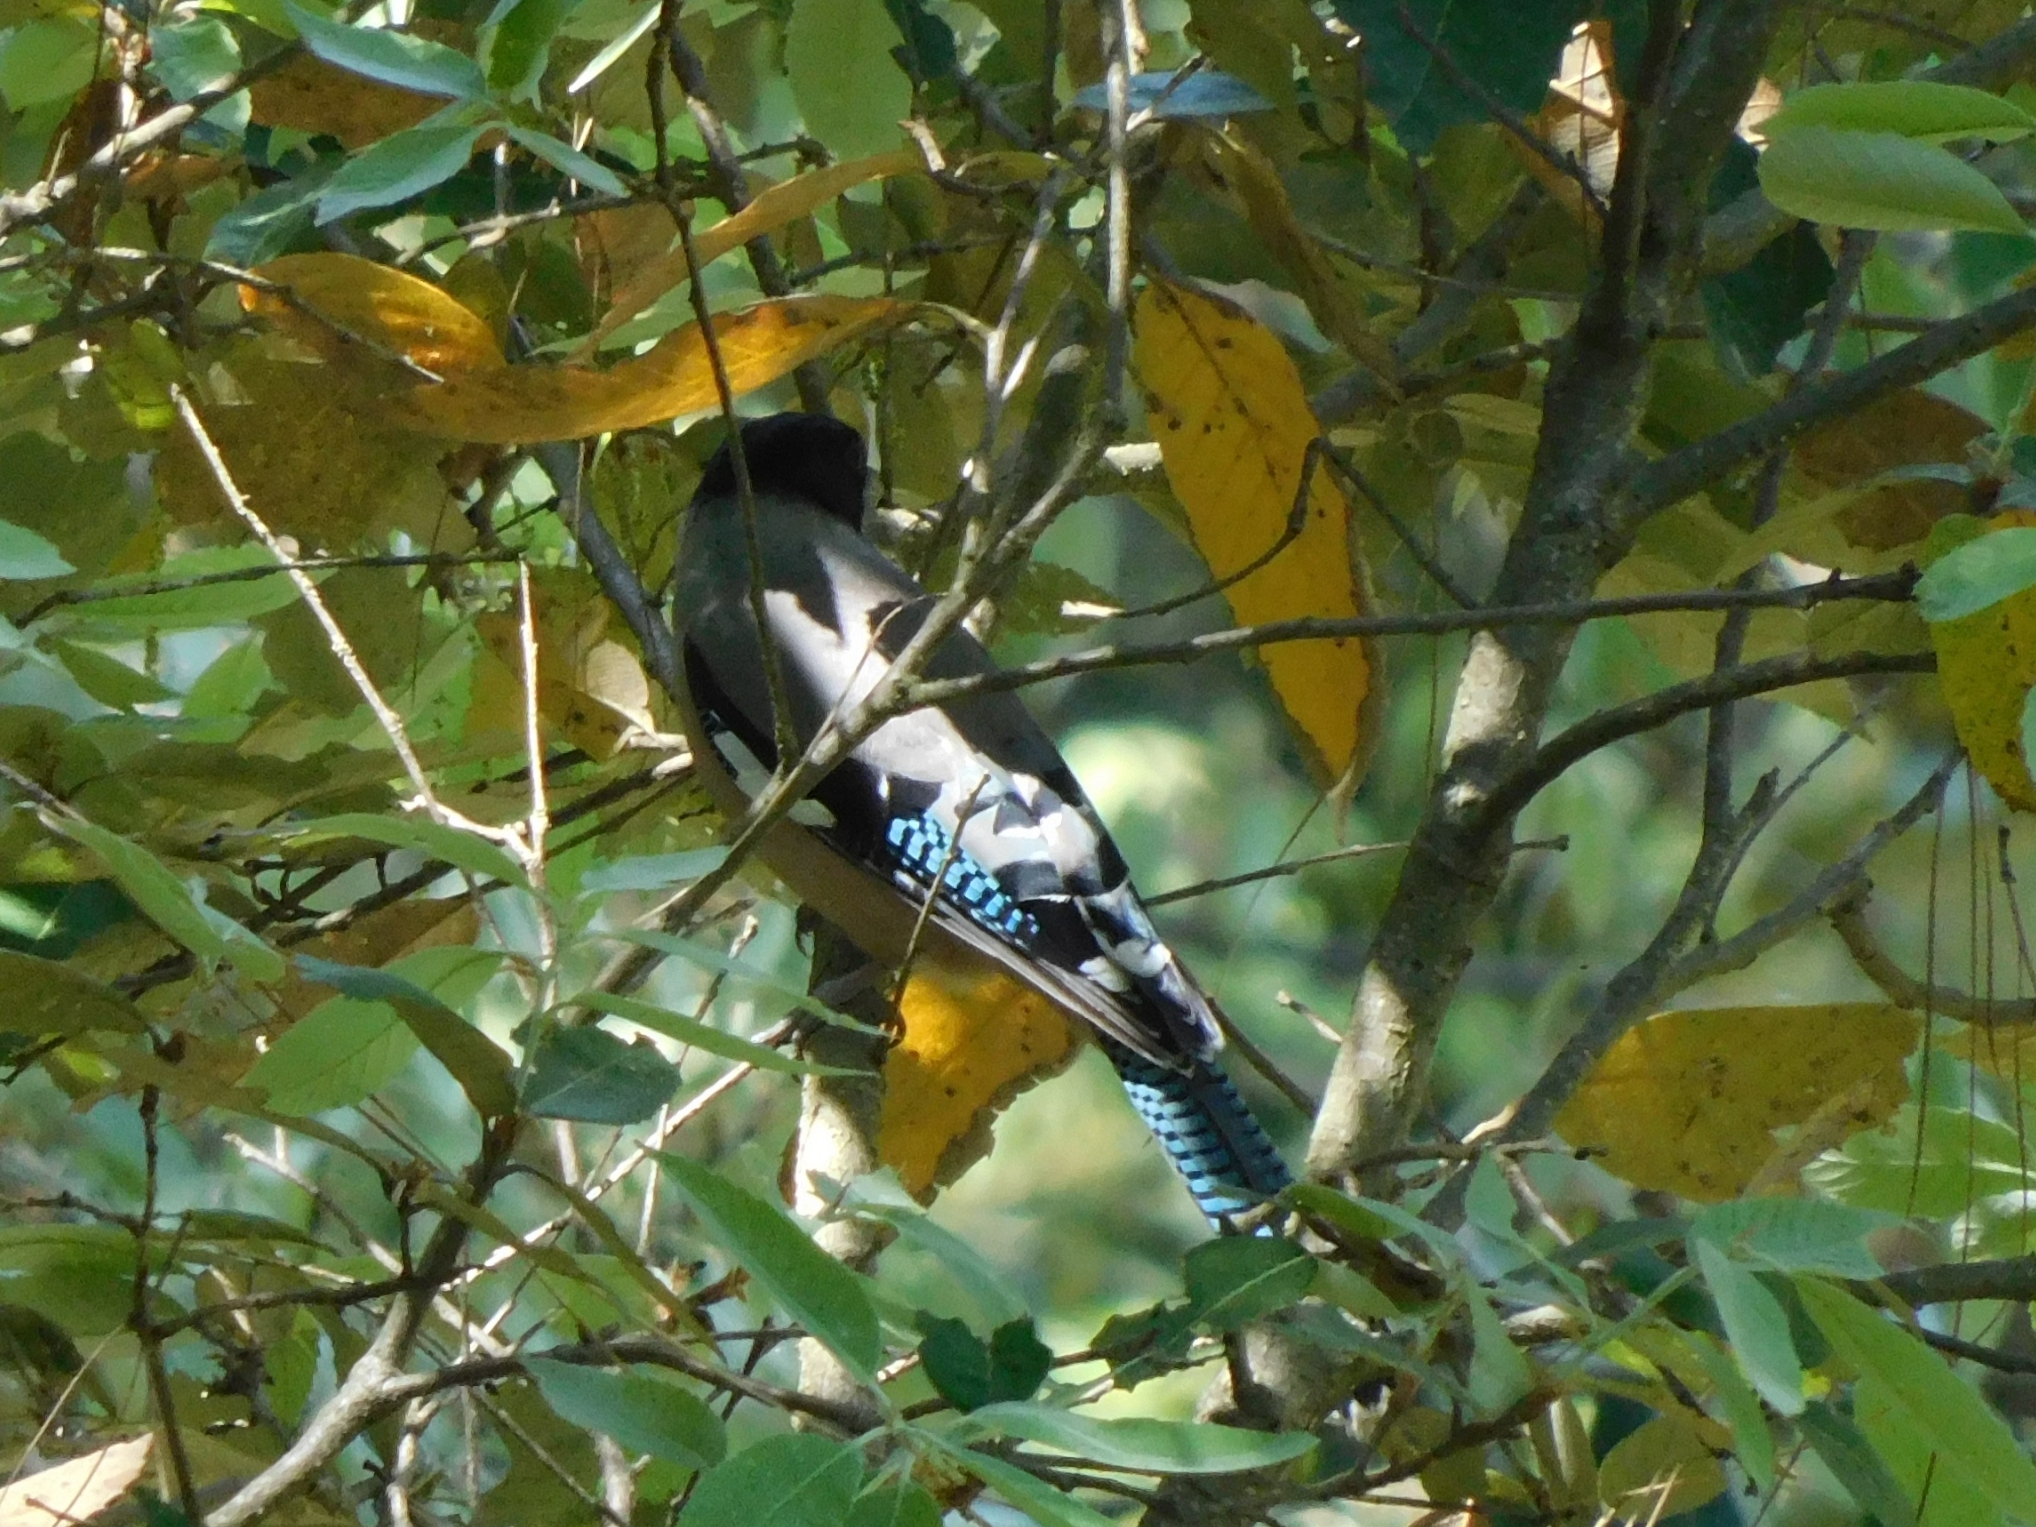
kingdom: Animalia
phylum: Chordata
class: Aves
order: Passeriformes
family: Corvidae
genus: Garrulus
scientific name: Garrulus lanceolatus
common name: Black-headed jay
